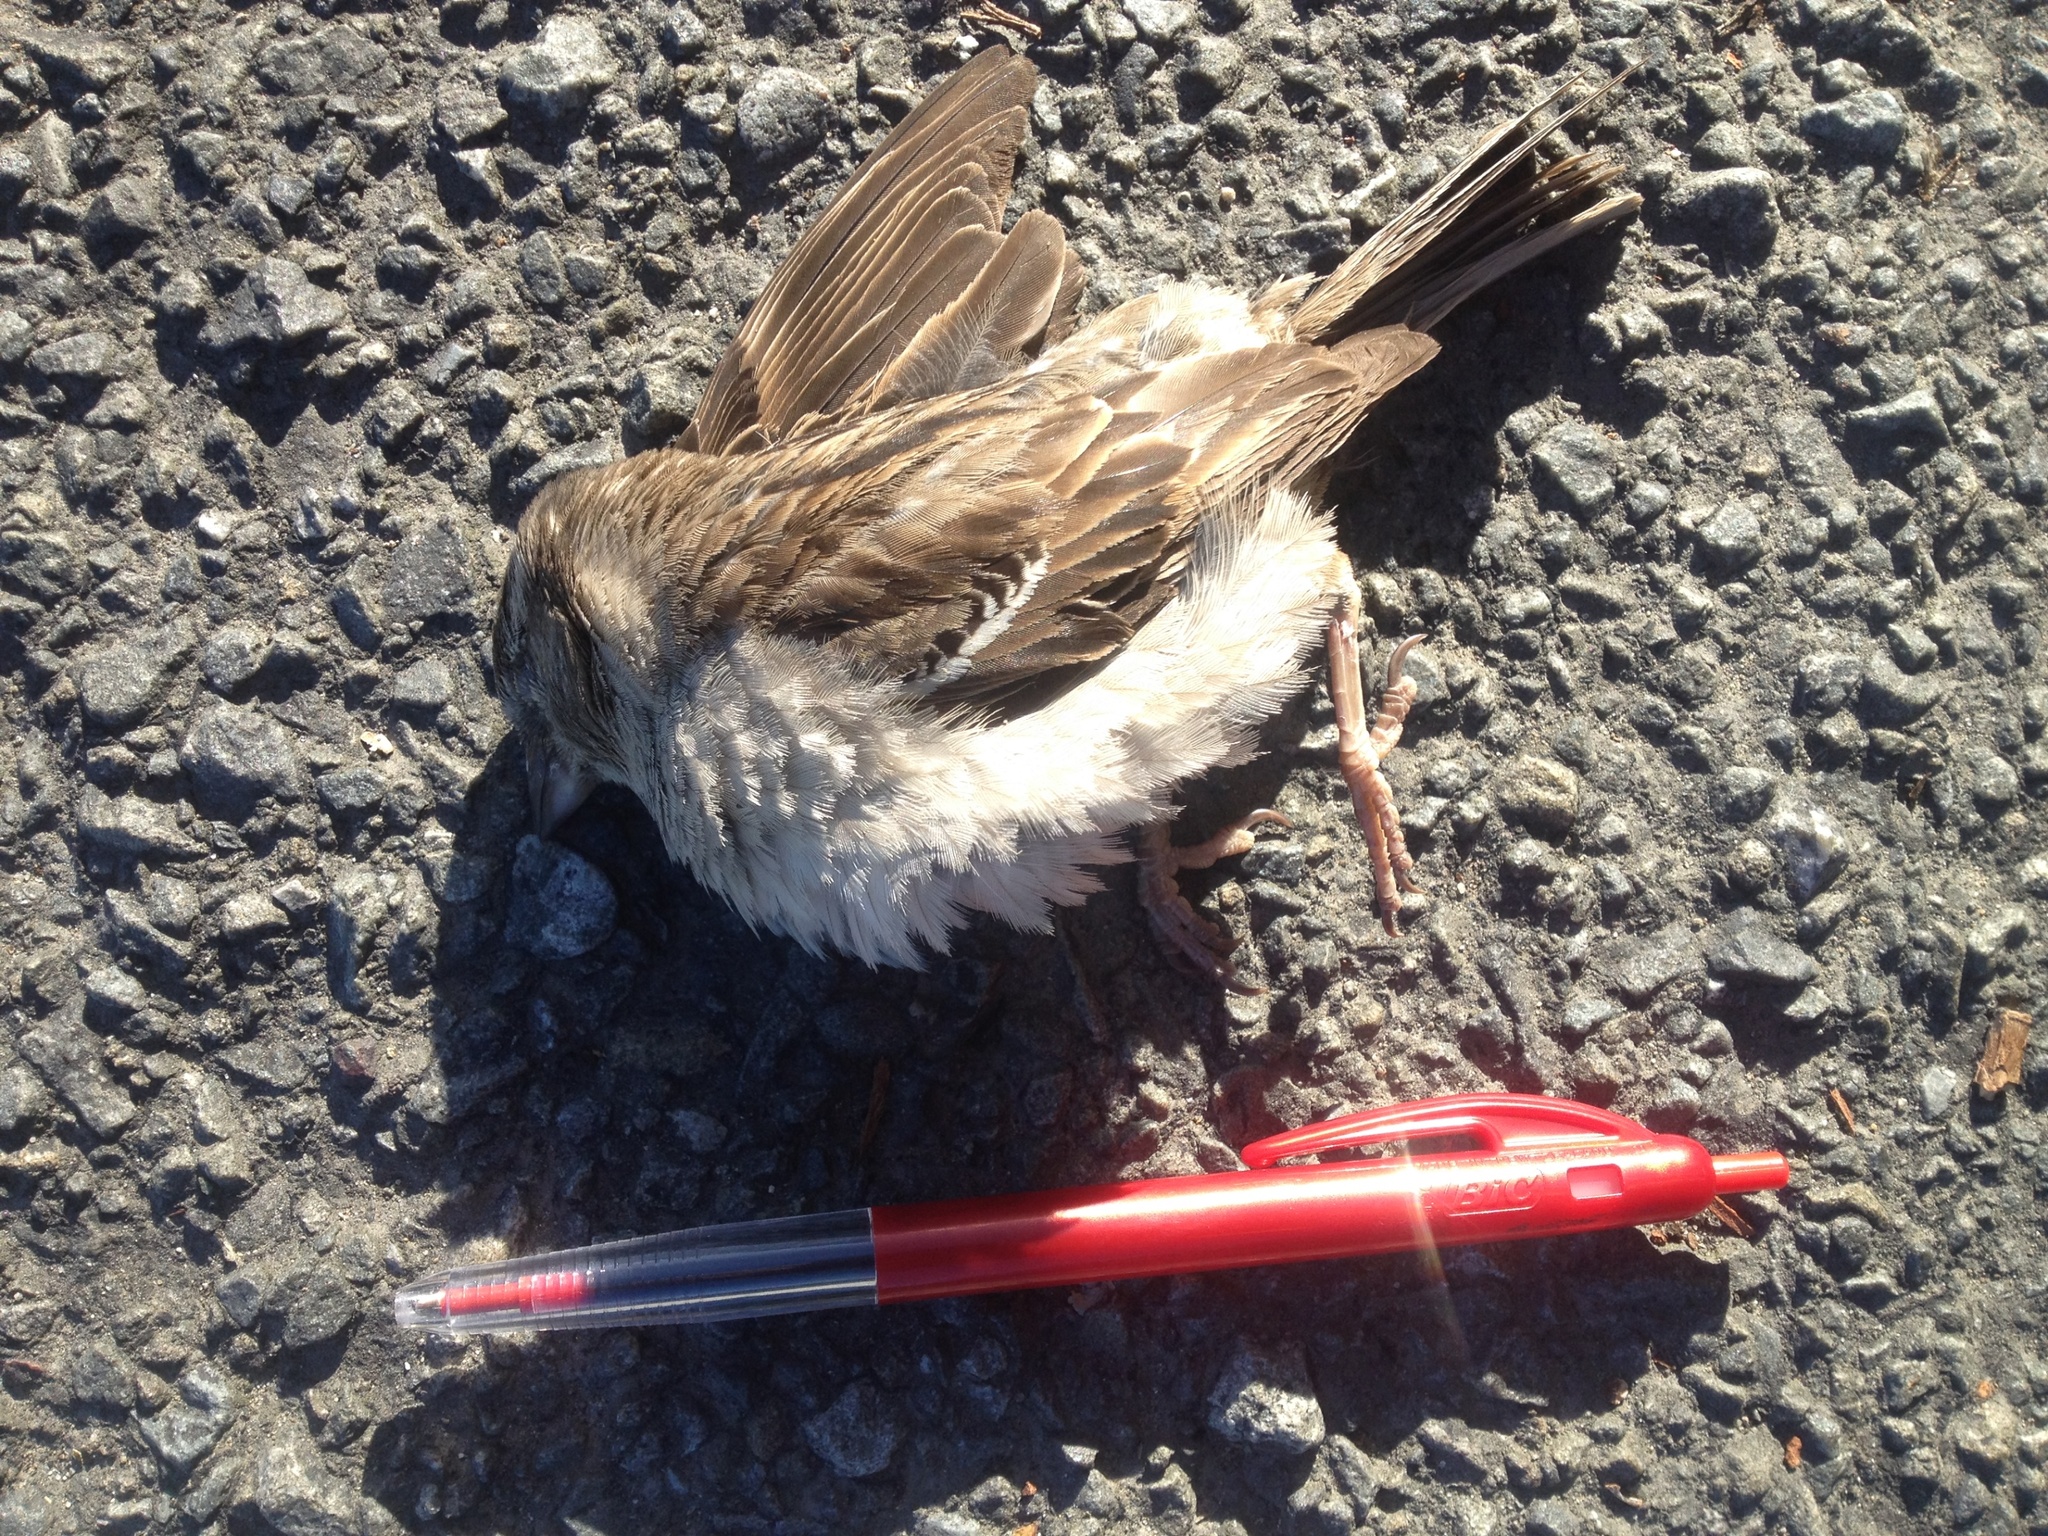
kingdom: Animalia
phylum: Chordata
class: Aves
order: Passeriformes
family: Passeridae
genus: Passer
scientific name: Passer domesticus
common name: House sparrow
